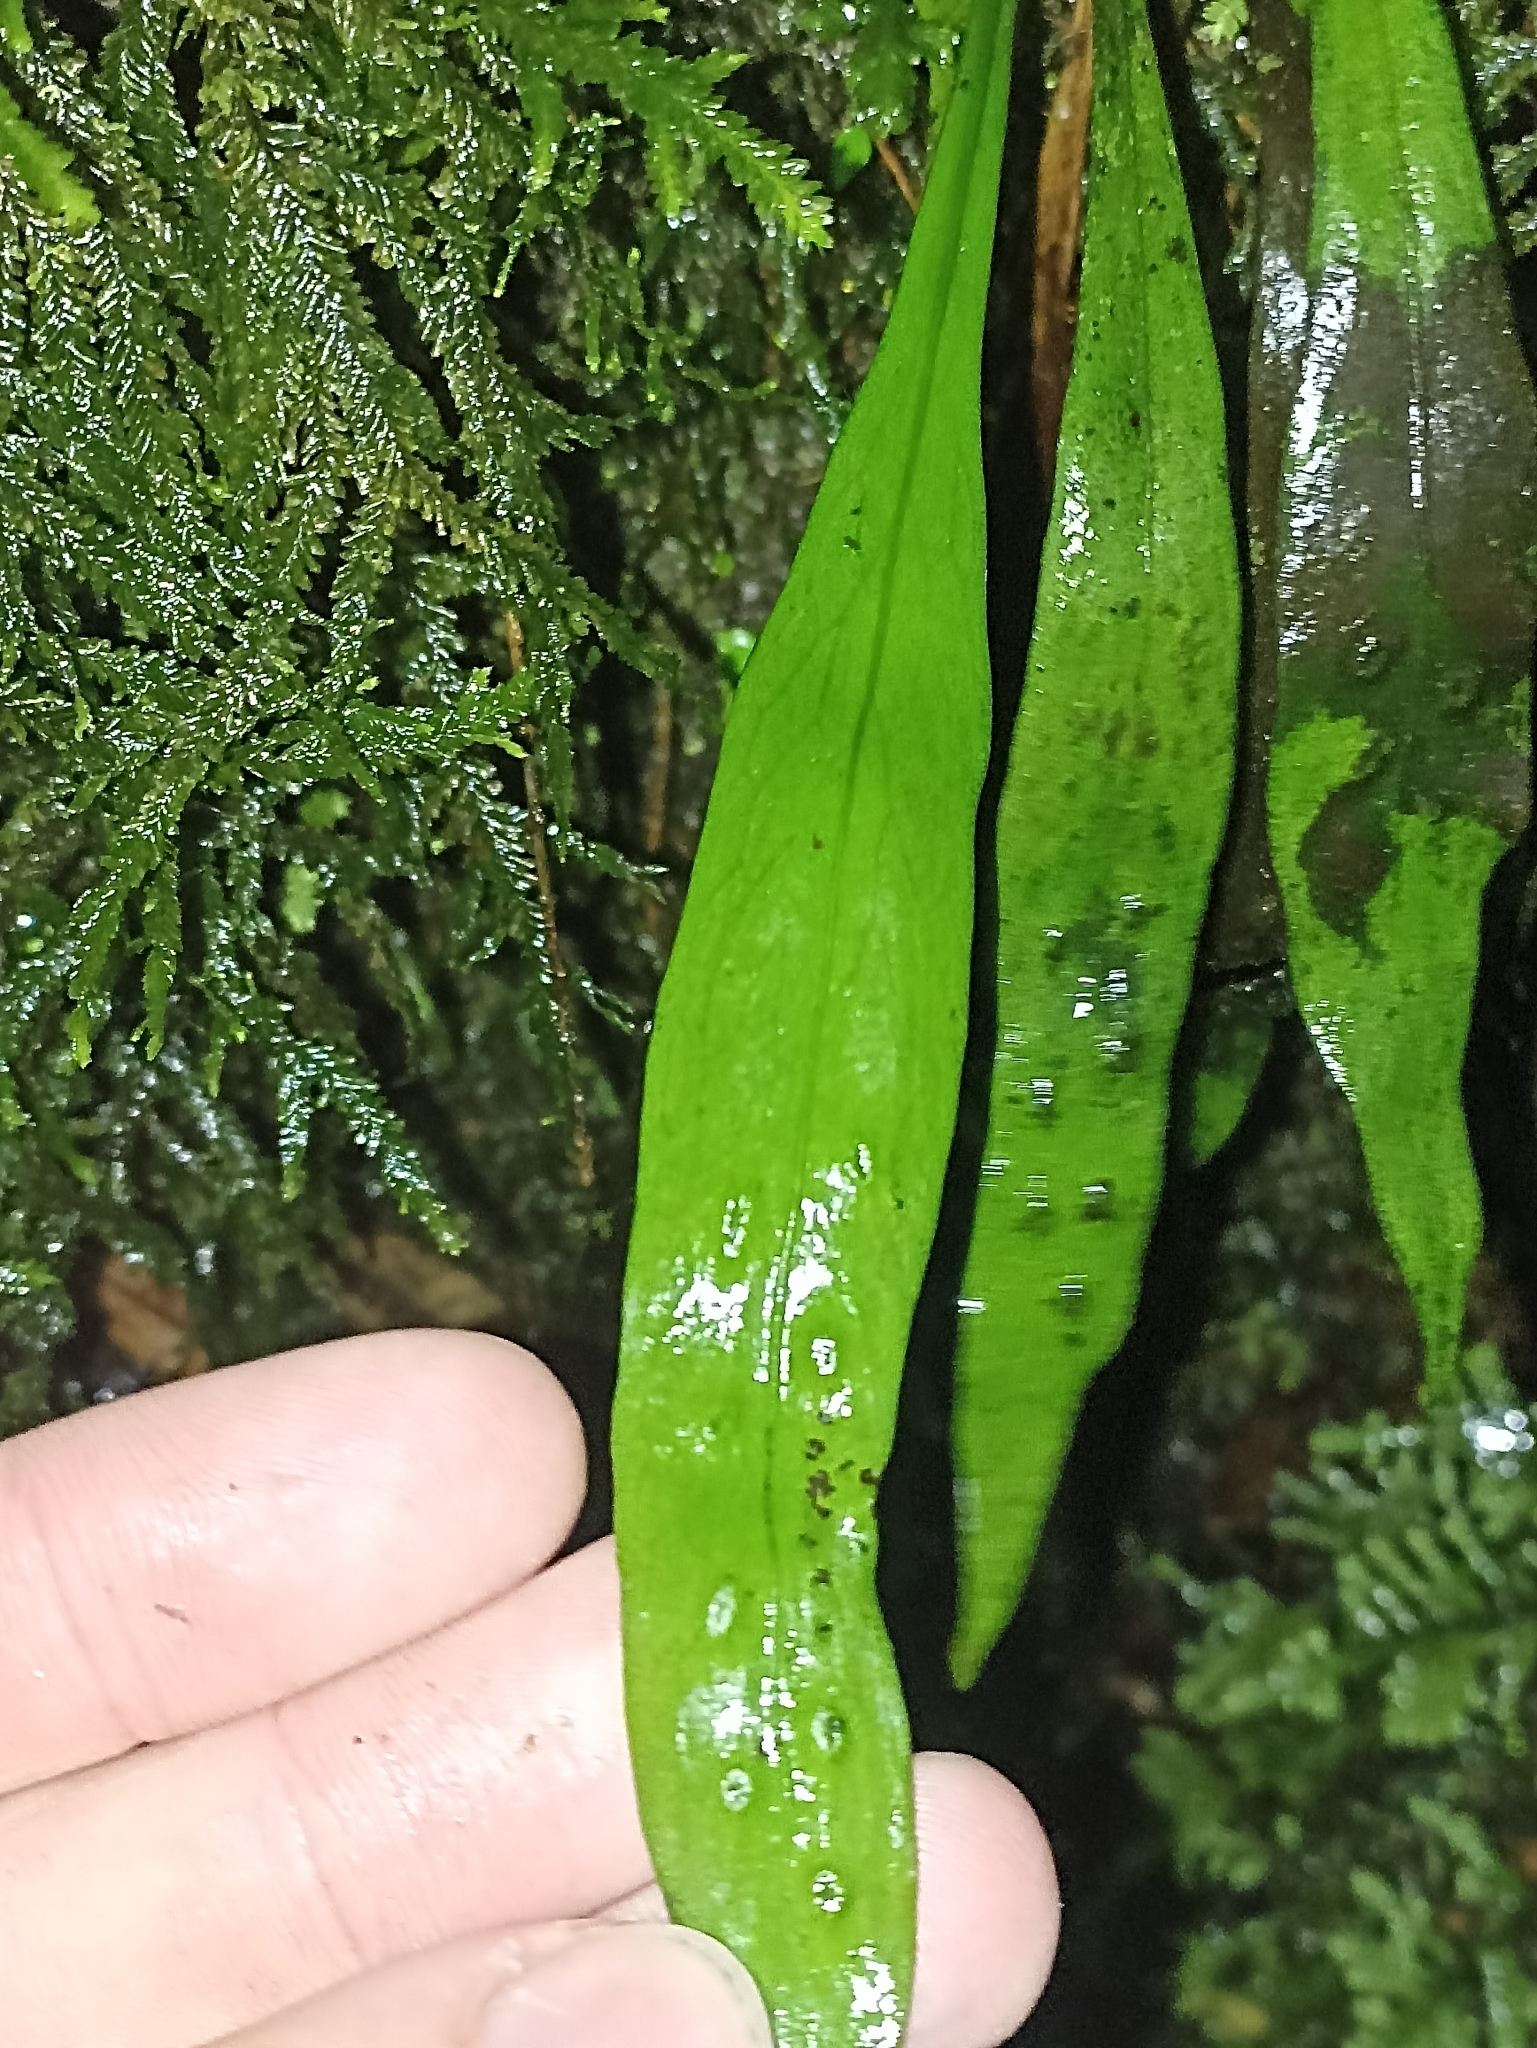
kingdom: Plantae
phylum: Tracheophyta
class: Polypodiopsida
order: Polypodiales
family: Polypodiaceae
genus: Loxogramme
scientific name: Loxogramme dictyopteris
